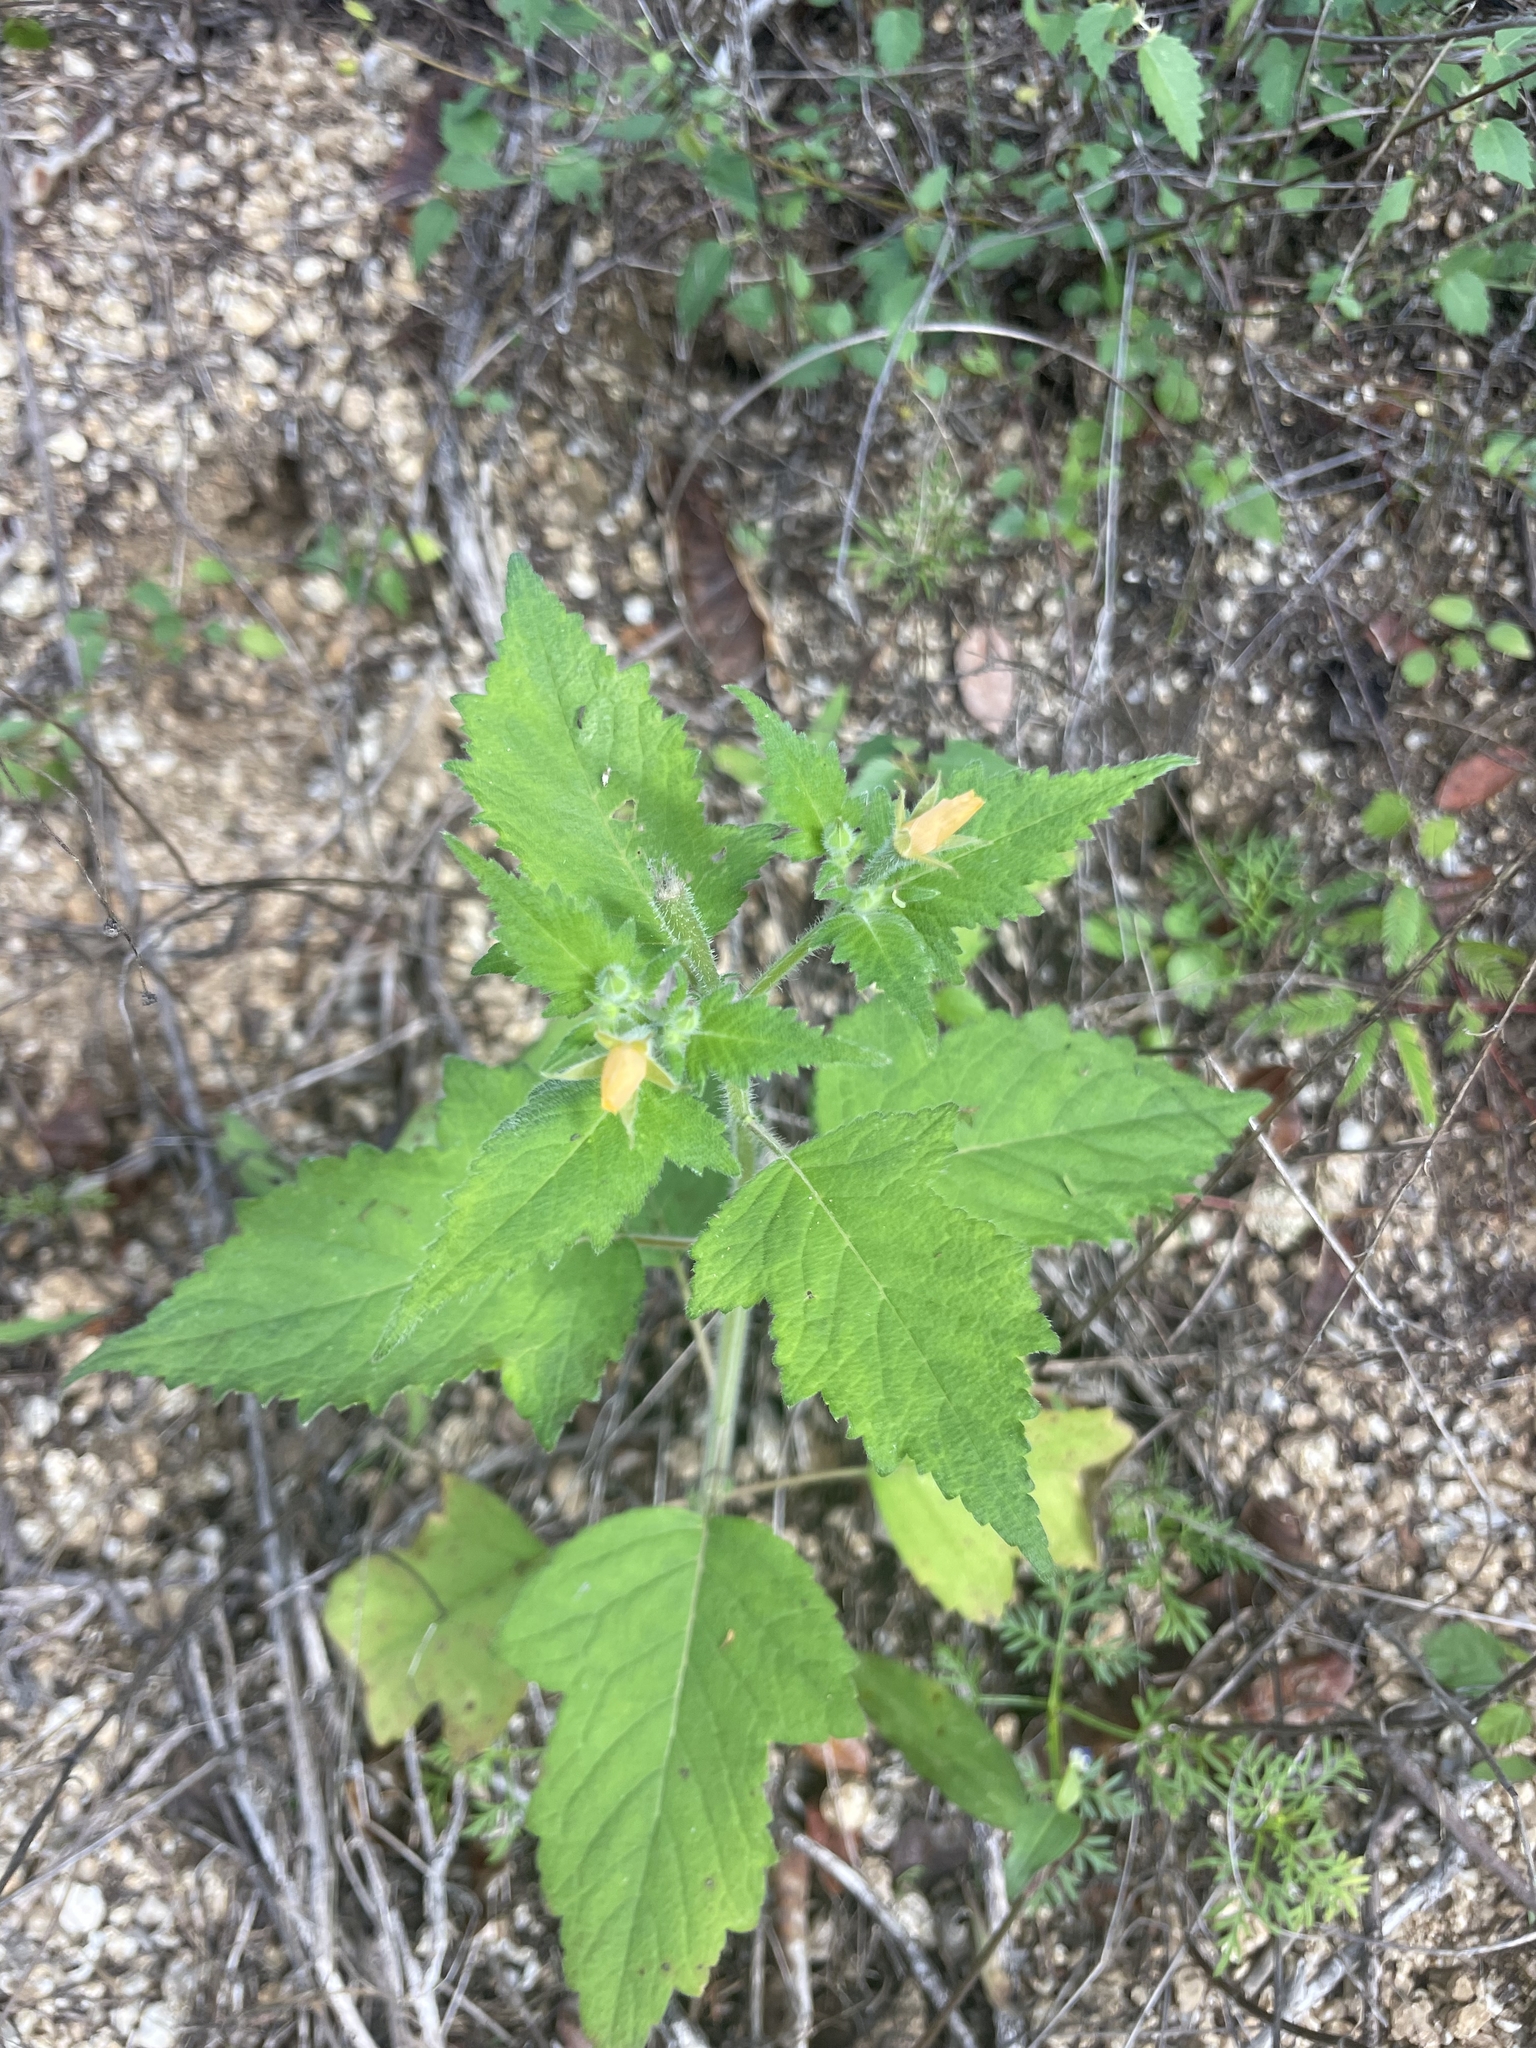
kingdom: Plantae
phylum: Tracheophyta
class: Magnoliopsida
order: Cornales
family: Loasaceae
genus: Mentzelia
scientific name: Mentzelia aspera
